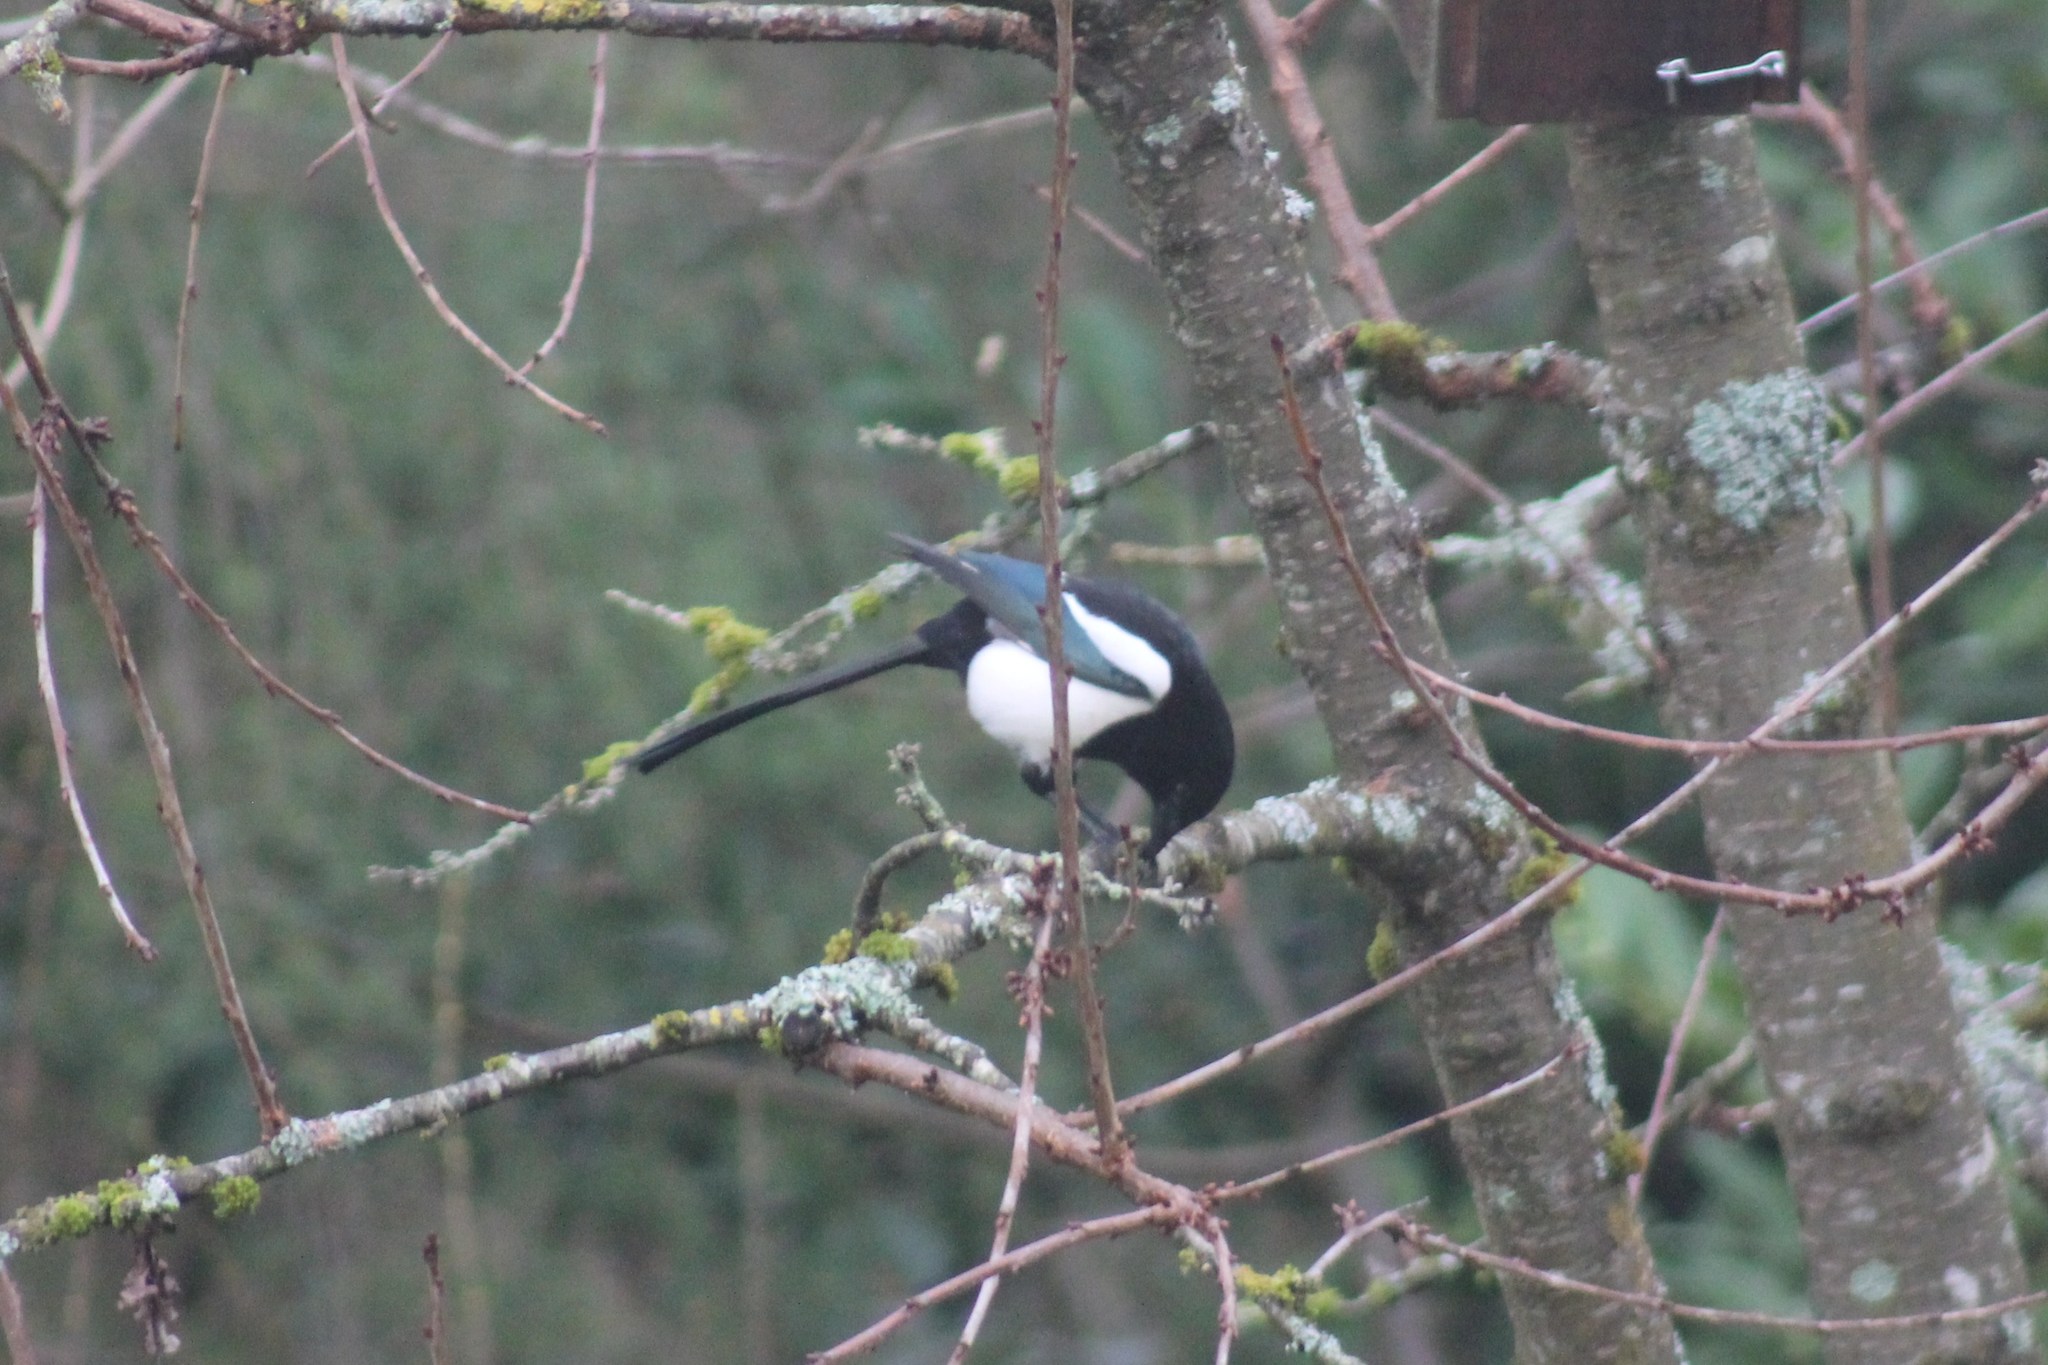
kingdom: Animalia
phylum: Chordata
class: Aves
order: Passeriformes
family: Corvidae
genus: Pica
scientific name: Pica pica
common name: Eurasian magpie
